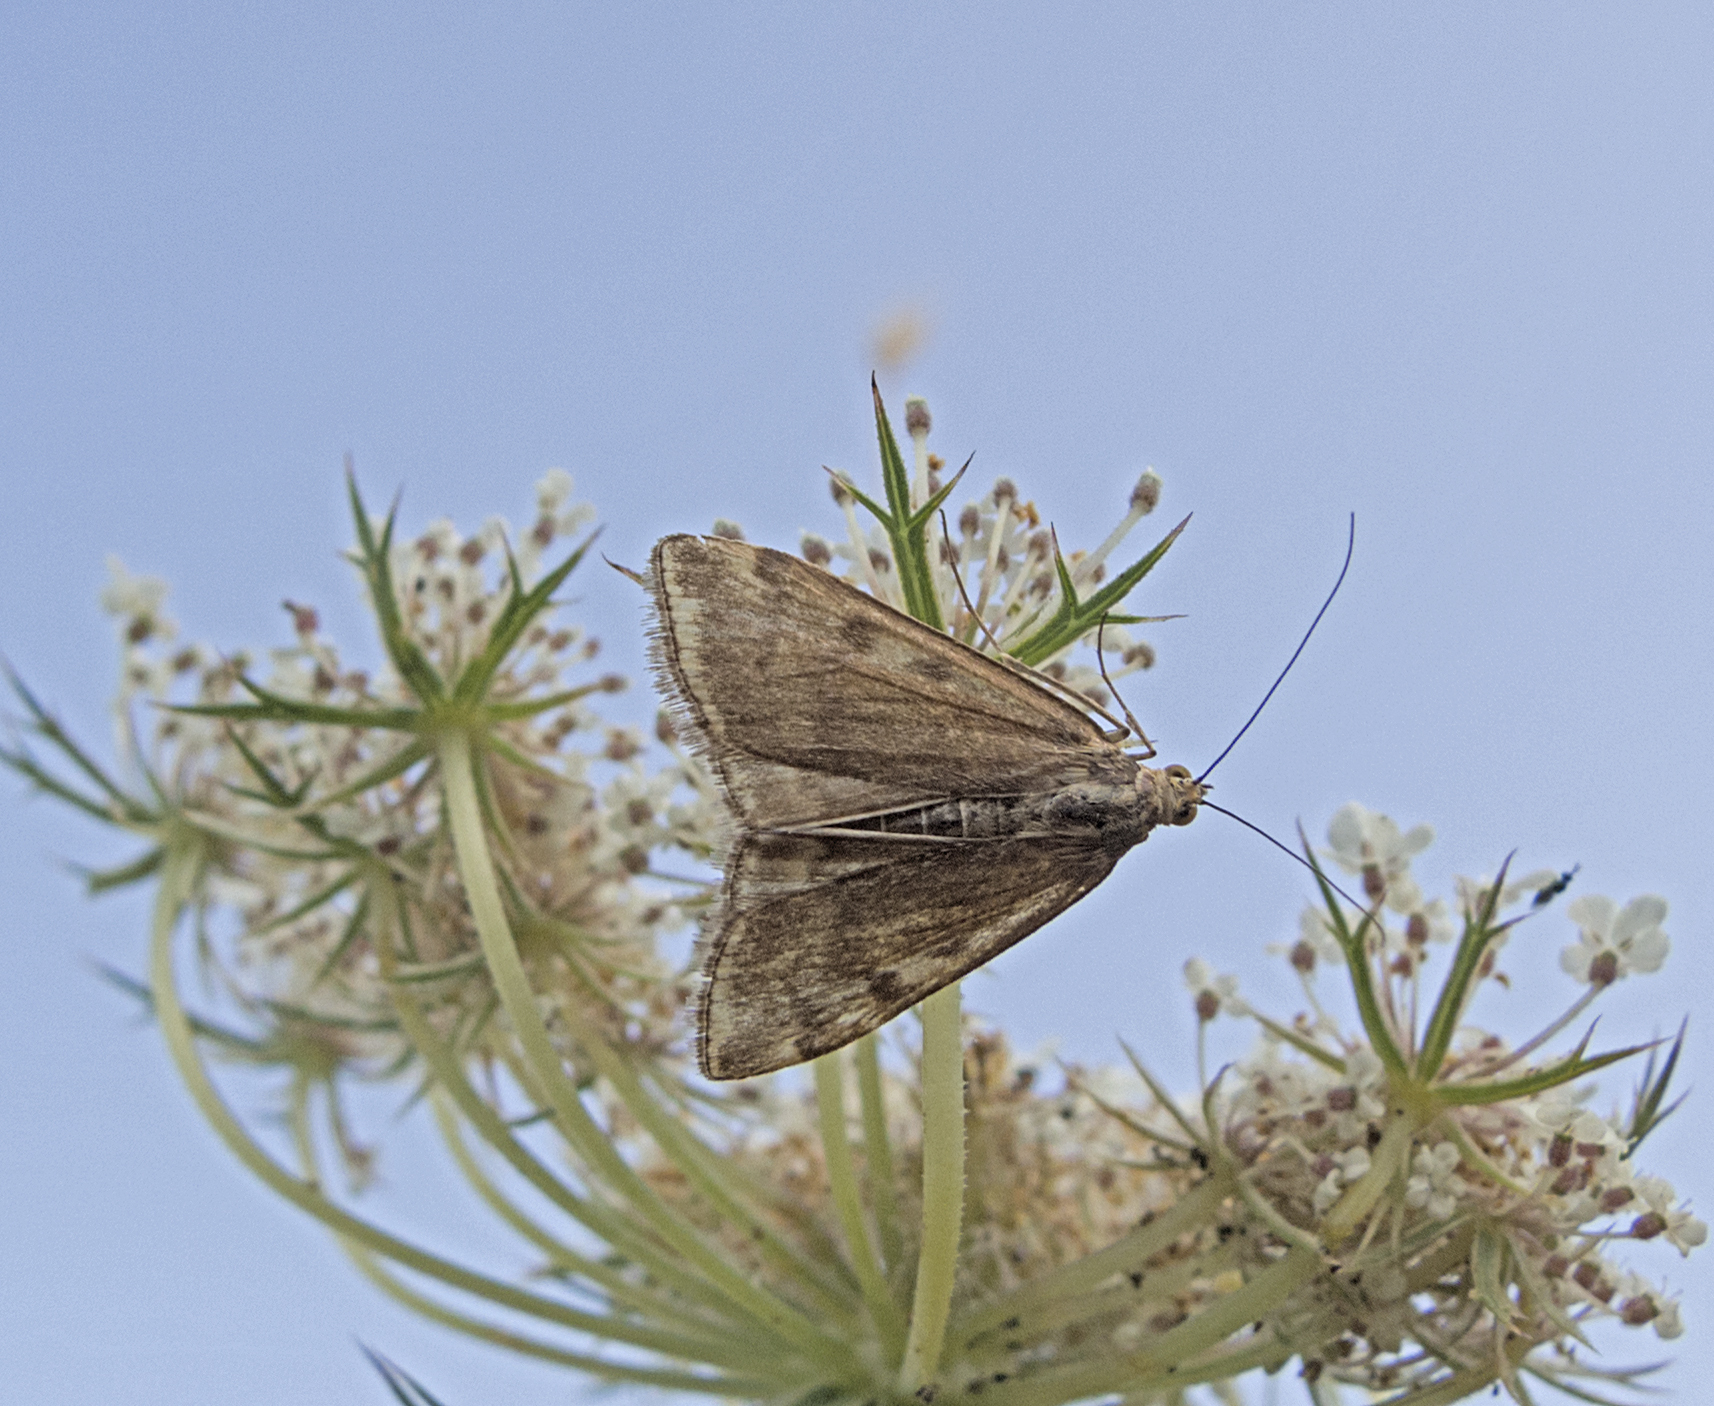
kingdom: Animalia
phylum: Arthropoda
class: Insecta
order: Lepidoptera
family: Crambidae
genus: Loxostege
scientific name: Loxostege sticticalis
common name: Crambid moth
